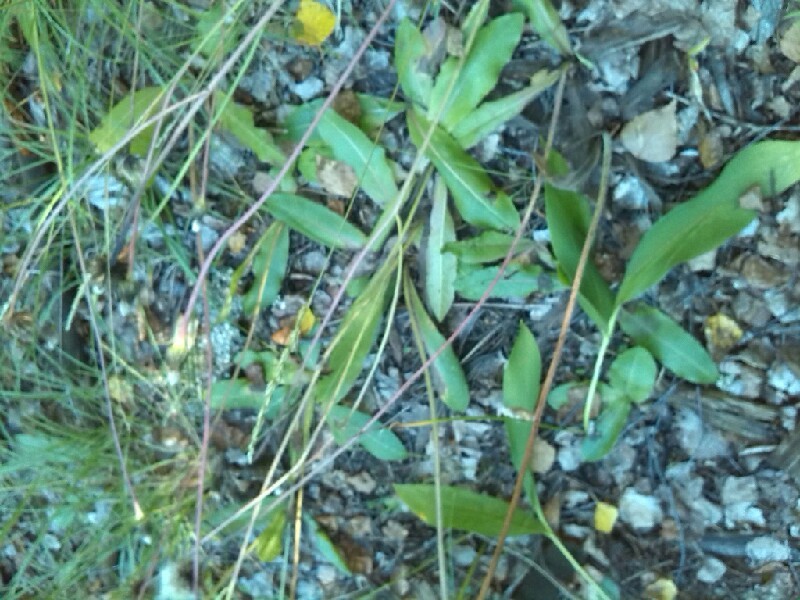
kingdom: Plantae
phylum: Tracheophyta
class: Magnoliopsida
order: Asterales
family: Asteraceae
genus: Trommsdorffia
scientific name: Trommsdorffia maculata
